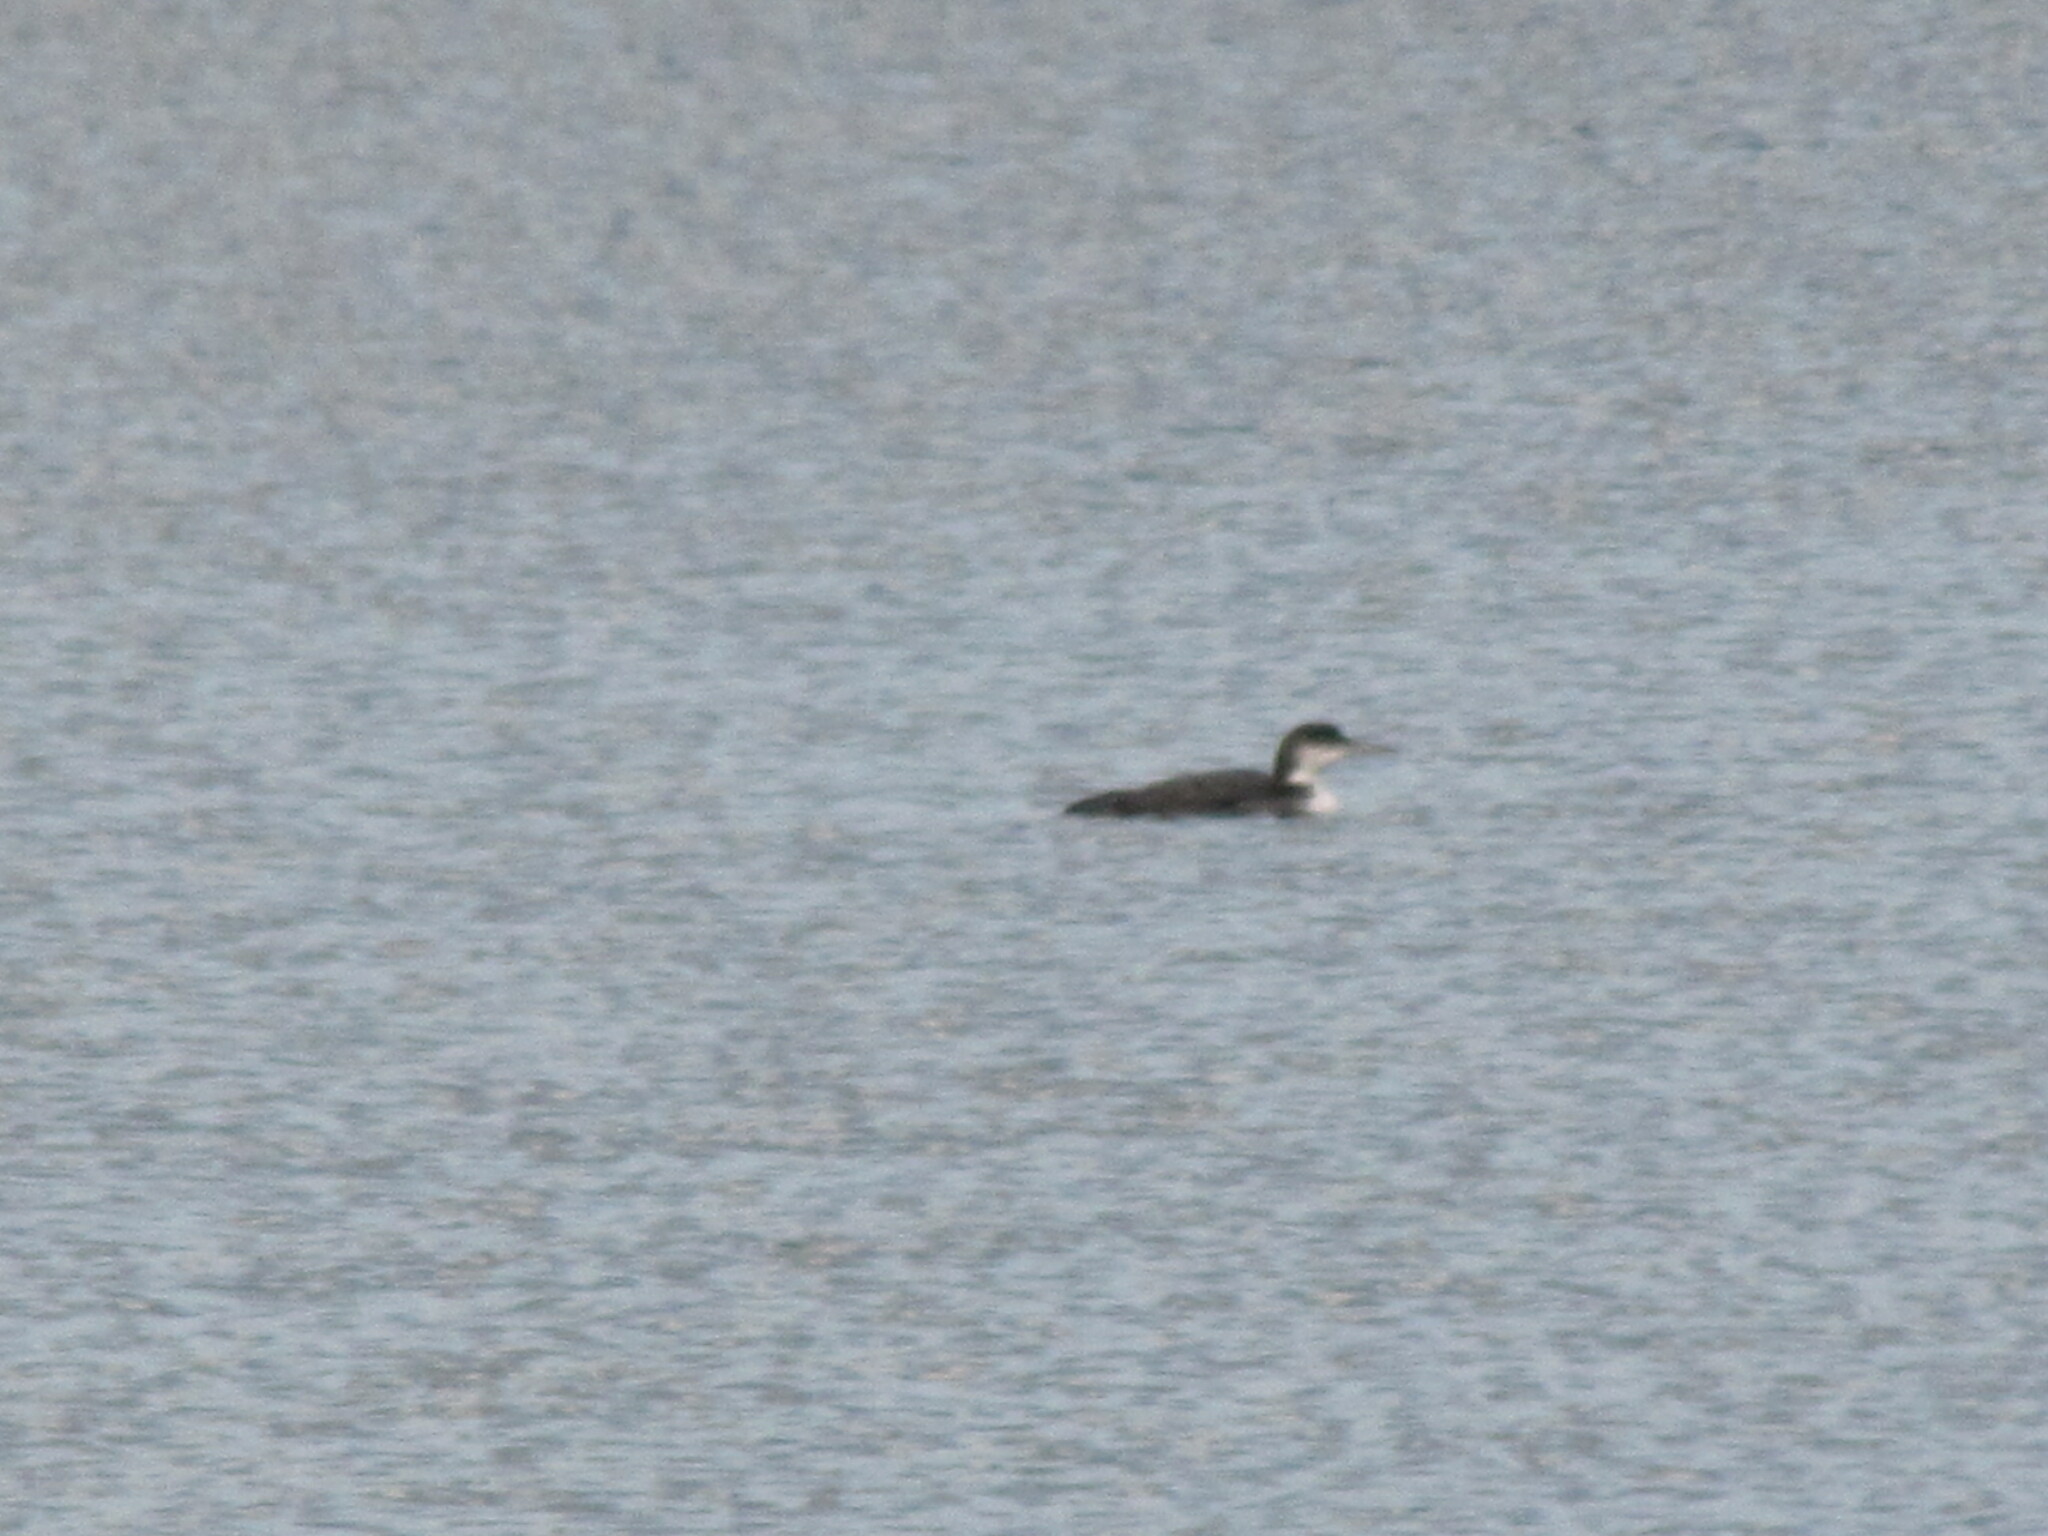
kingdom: Animalia
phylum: Chordata
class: Aves
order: Gaviiformes
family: Gaviidae
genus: Gavia
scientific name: Gavia immer
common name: Common loon
